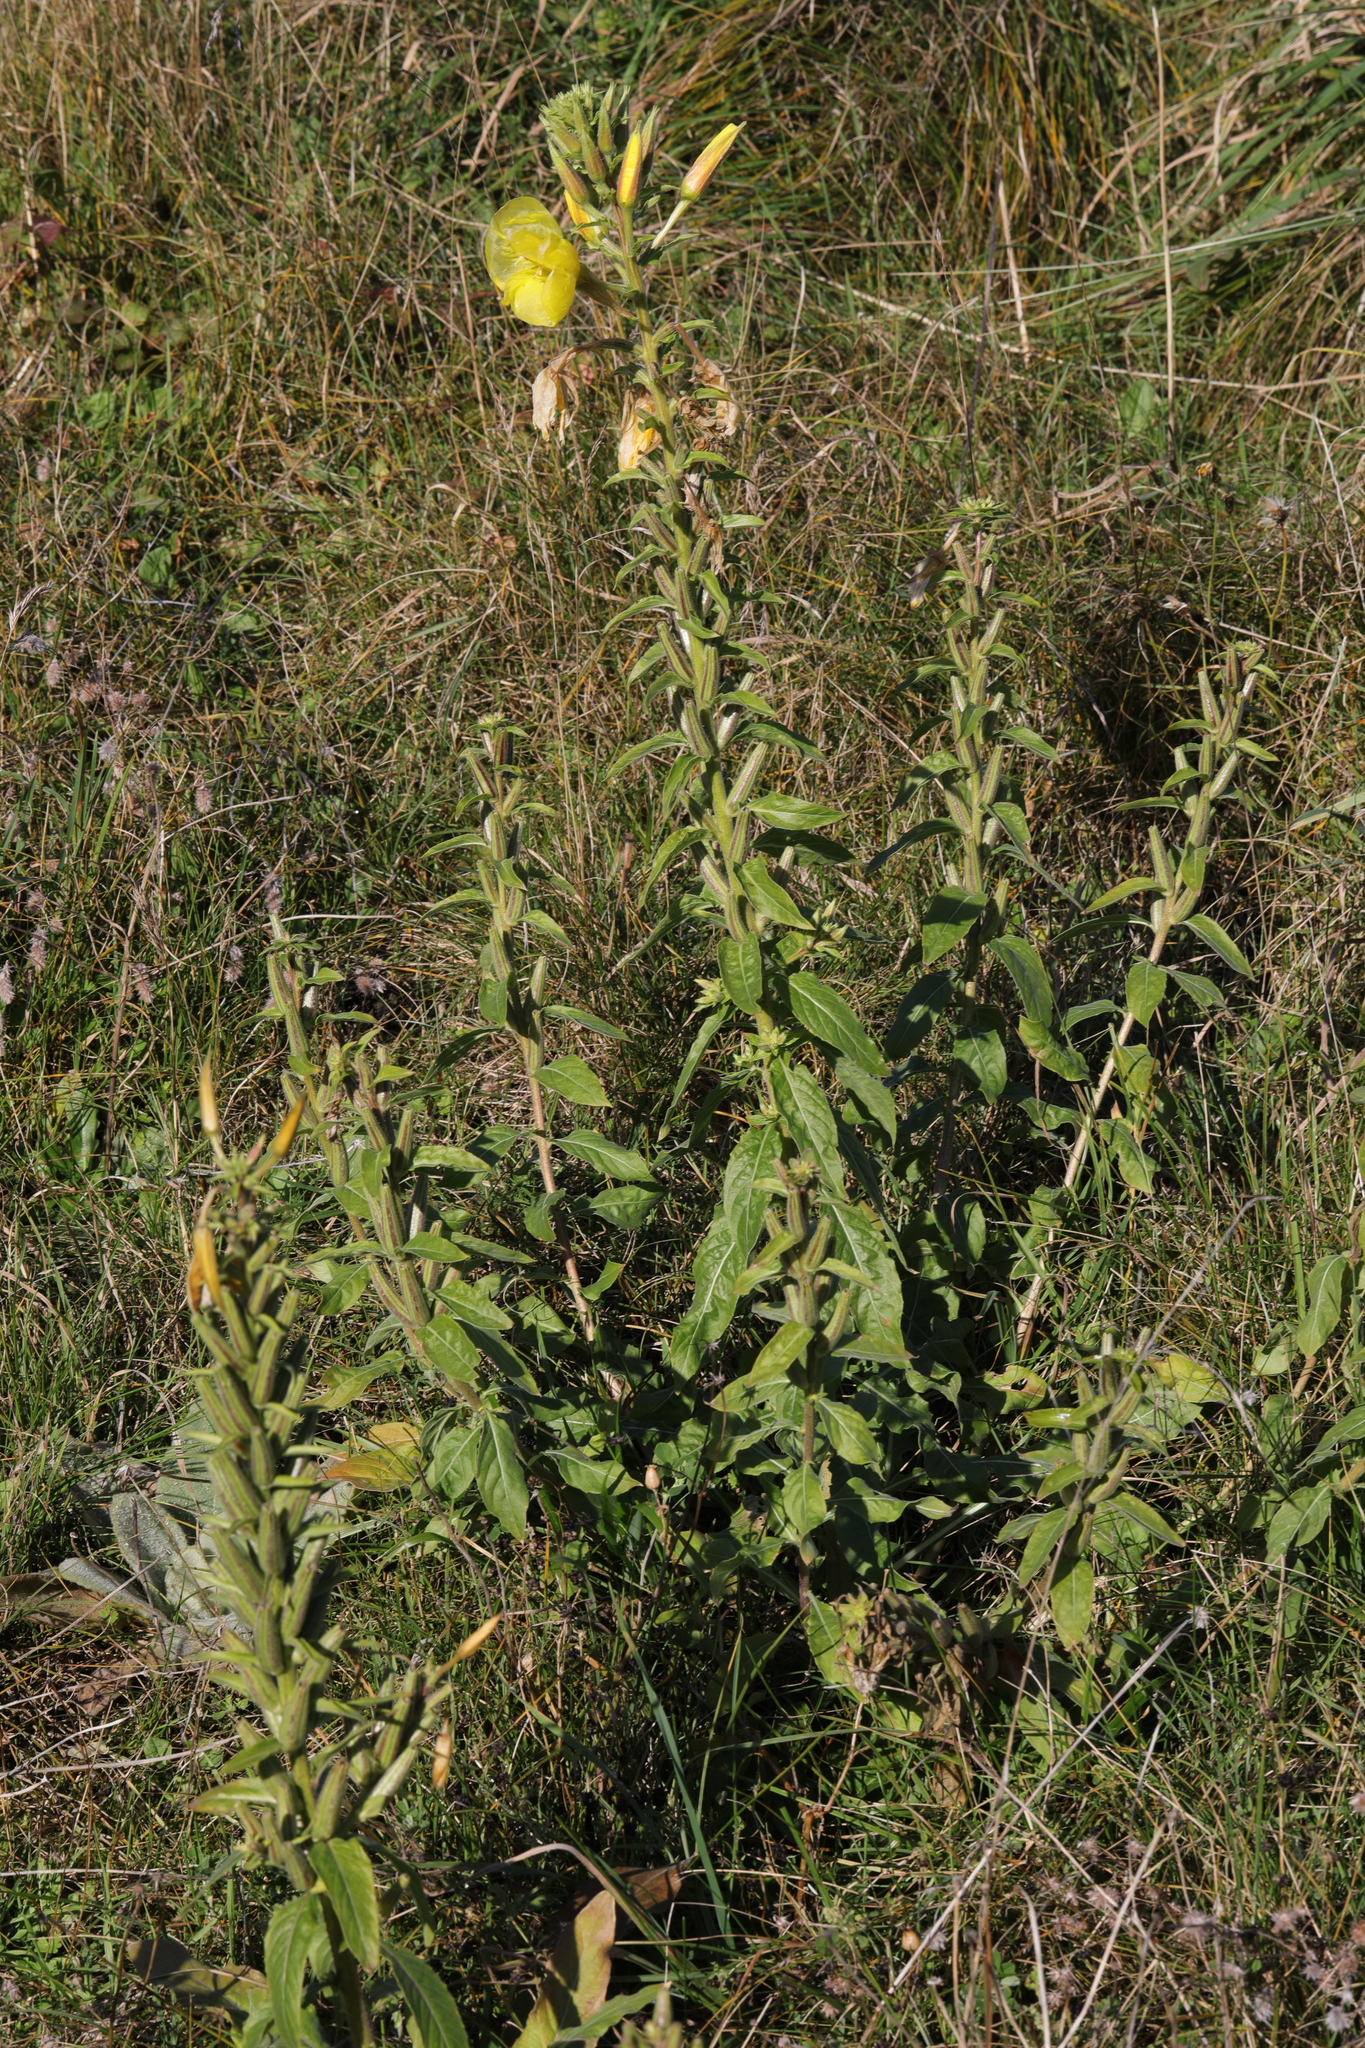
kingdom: Plantae
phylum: Tracheophyta
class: Magnoliopsida
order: Myrtales
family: Onagraceae
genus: Oenothera
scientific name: Oenothera glazioviana
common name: Large-flowered evening-primrose
